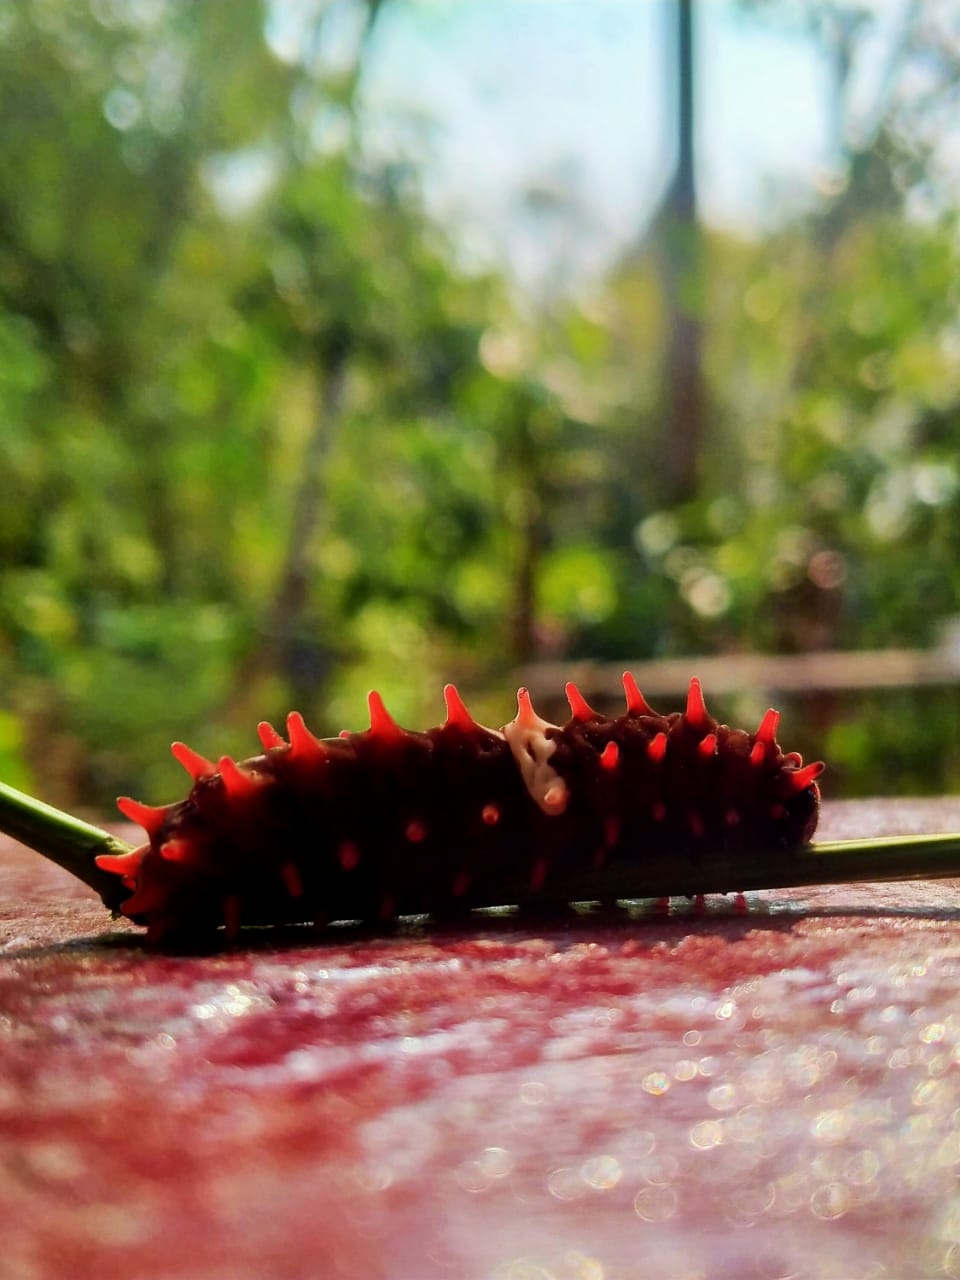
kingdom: Animalia
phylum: Arthropoda
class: Insecta
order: Lepidoptera
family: Papilionidae
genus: Pachliopta
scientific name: Pachliopta aristolochiae
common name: Common rose
